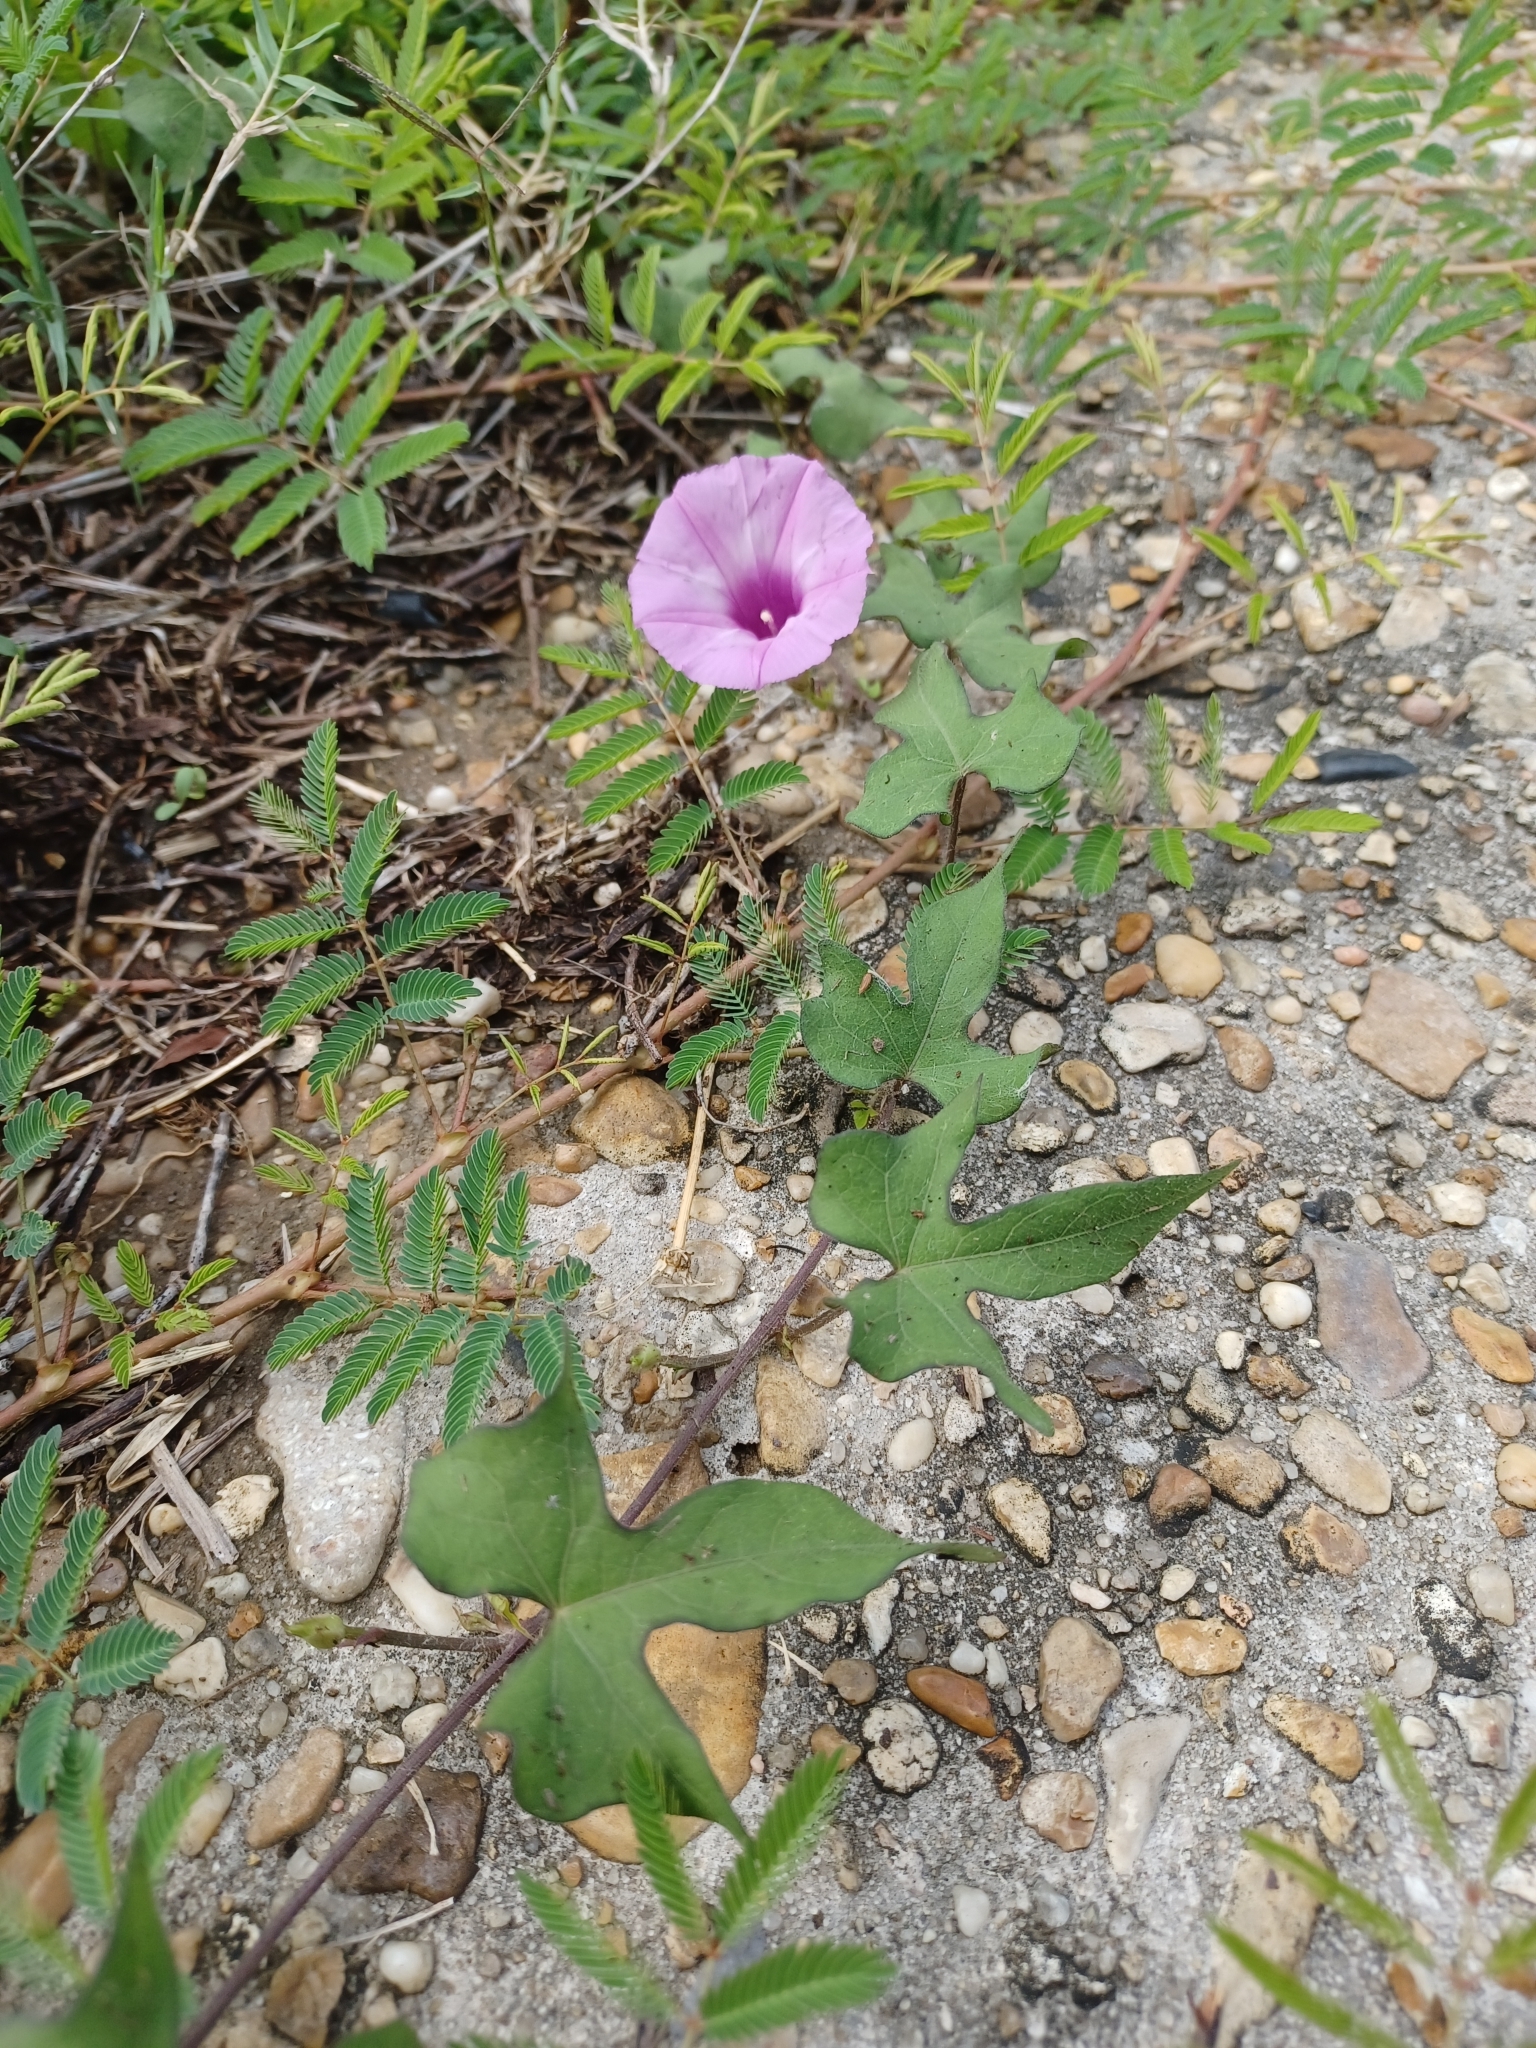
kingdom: Plantae
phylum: Tracheophyta
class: Magnoliopsida
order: Solanales
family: Convolvulaceae
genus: Ipomoea
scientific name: Ipomoea cordatotriloba
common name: Cotton morning glory
